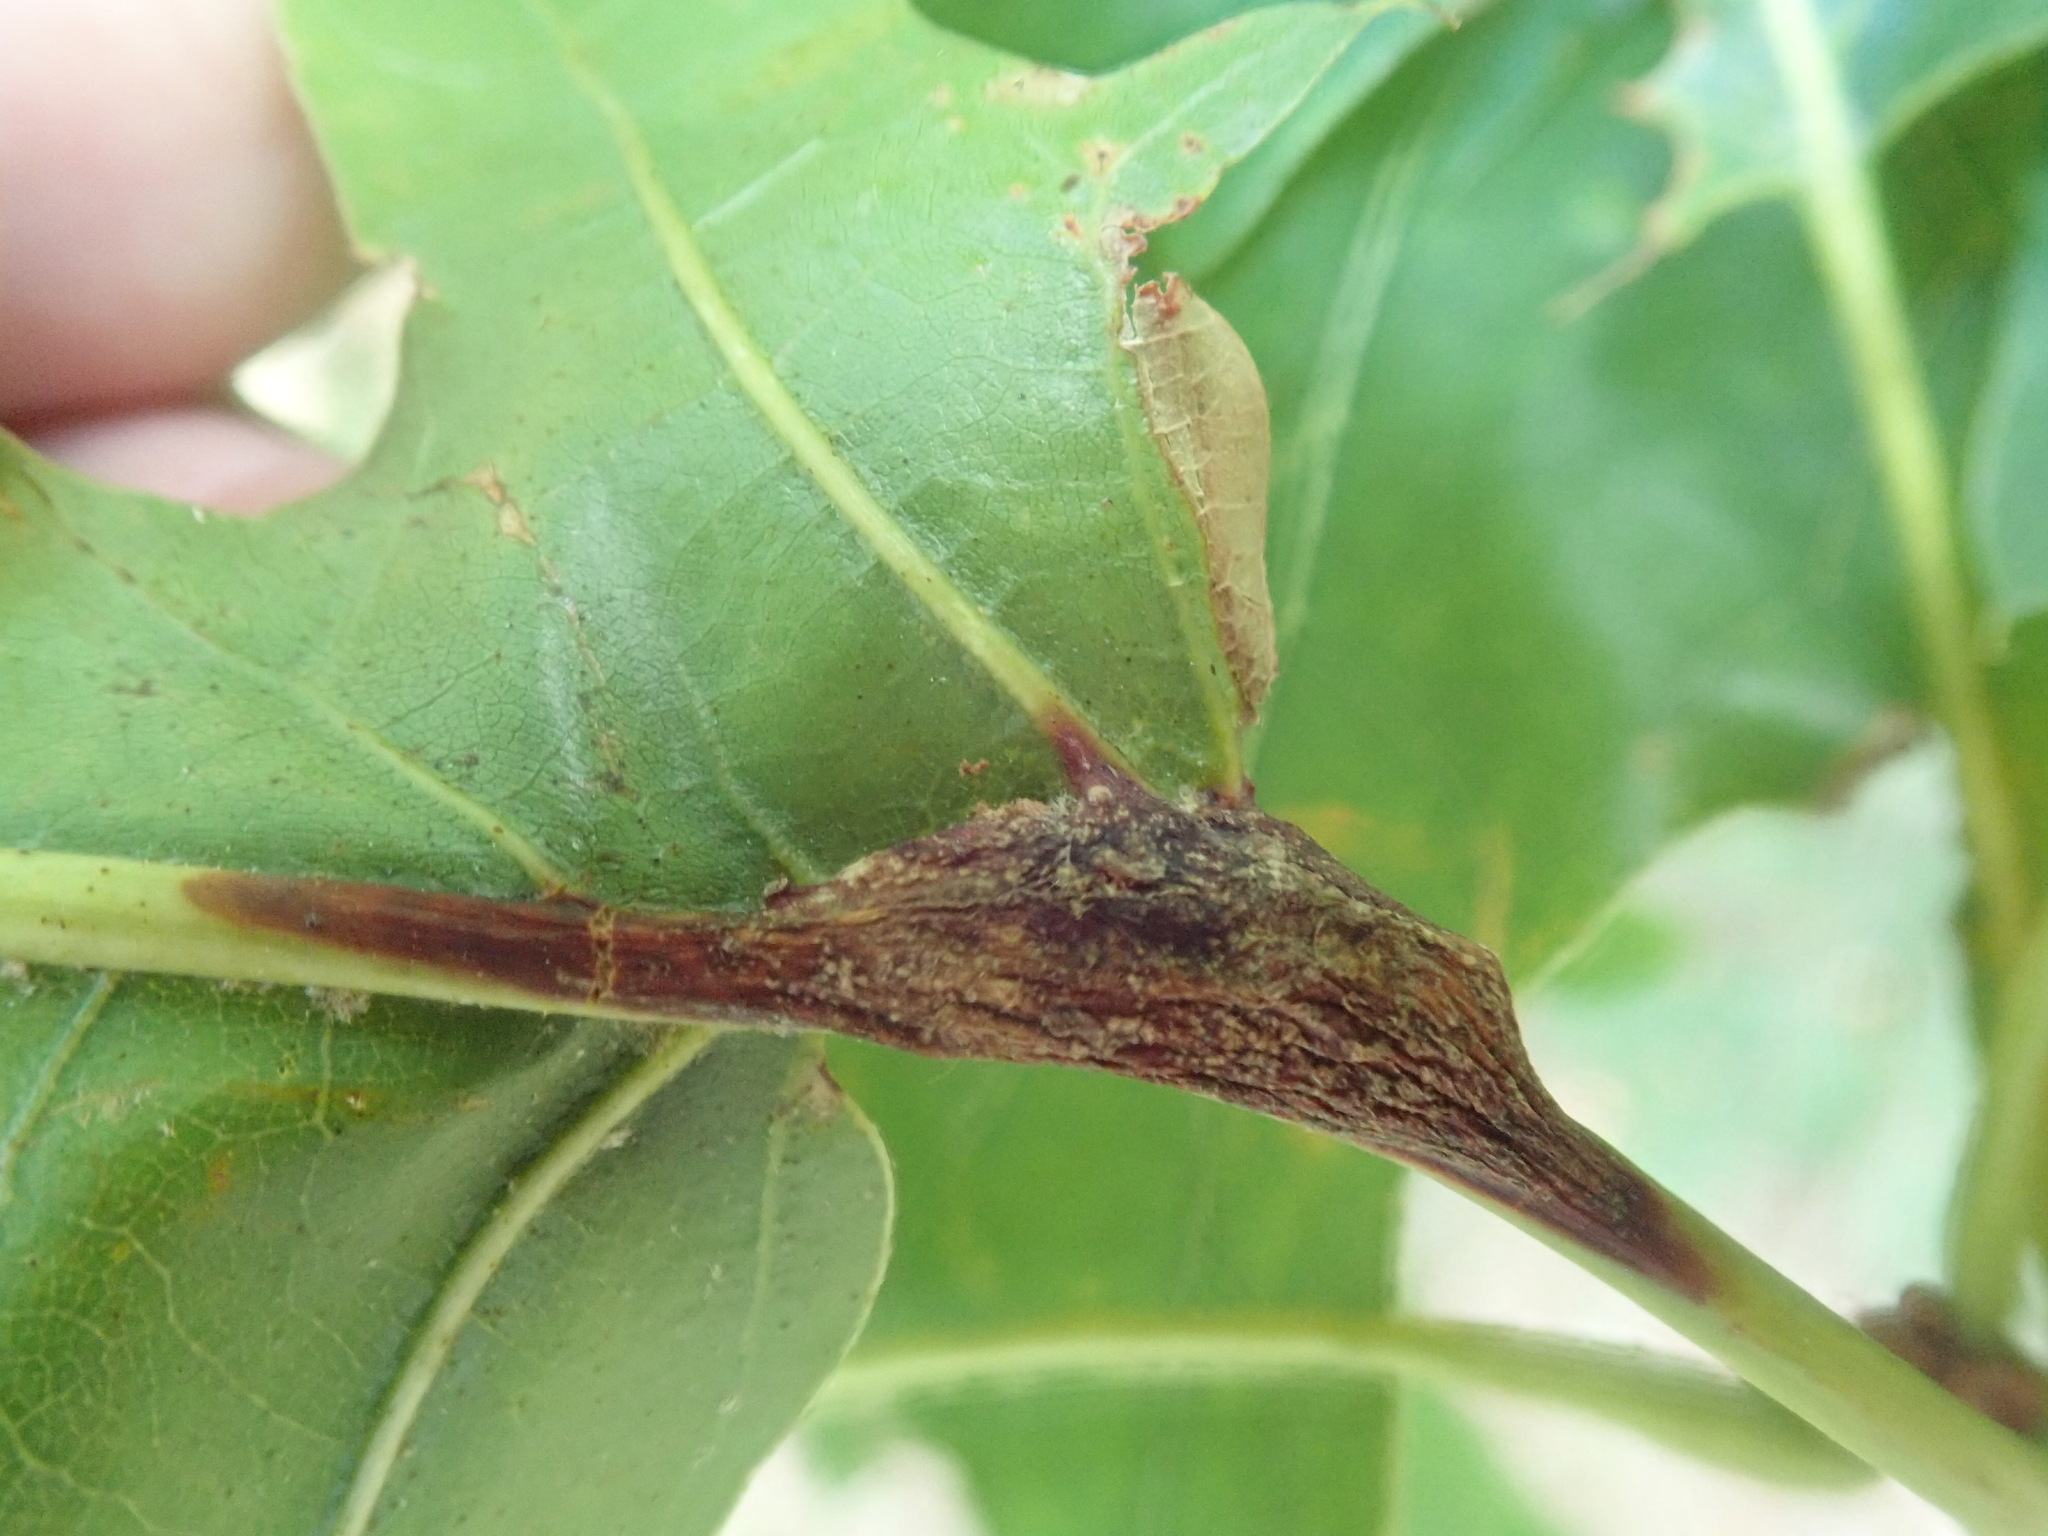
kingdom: Animalia
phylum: Arthropoda
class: Insecta
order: Hymenoptera
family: Cynipidae
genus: Melikaiella
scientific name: Melikaiella tumifica
